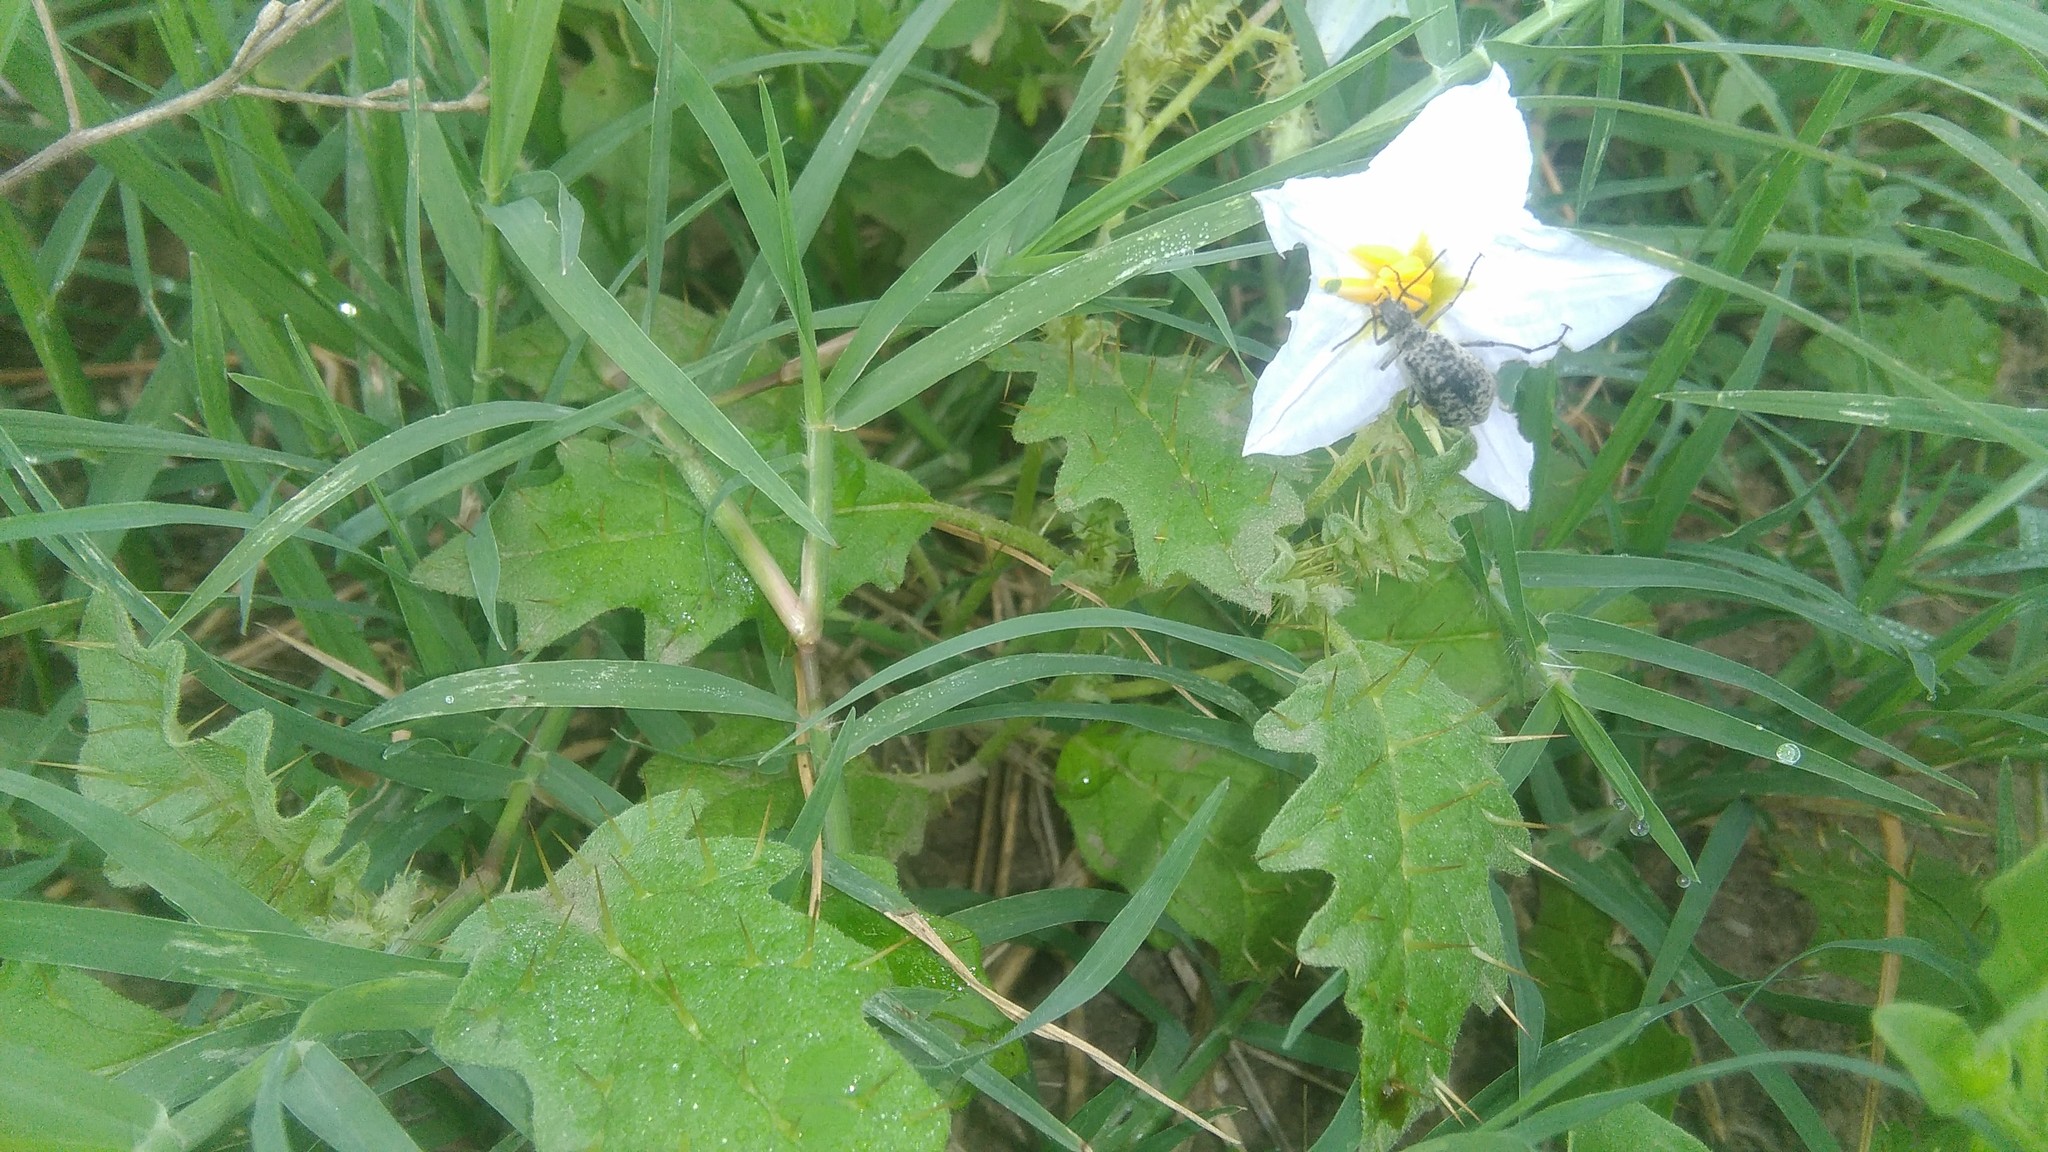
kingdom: Plantae
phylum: Tracheophyta
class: Magnoliopsida
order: Solanales
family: Solanaceae
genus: Solanum
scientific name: Solanum juvenale
